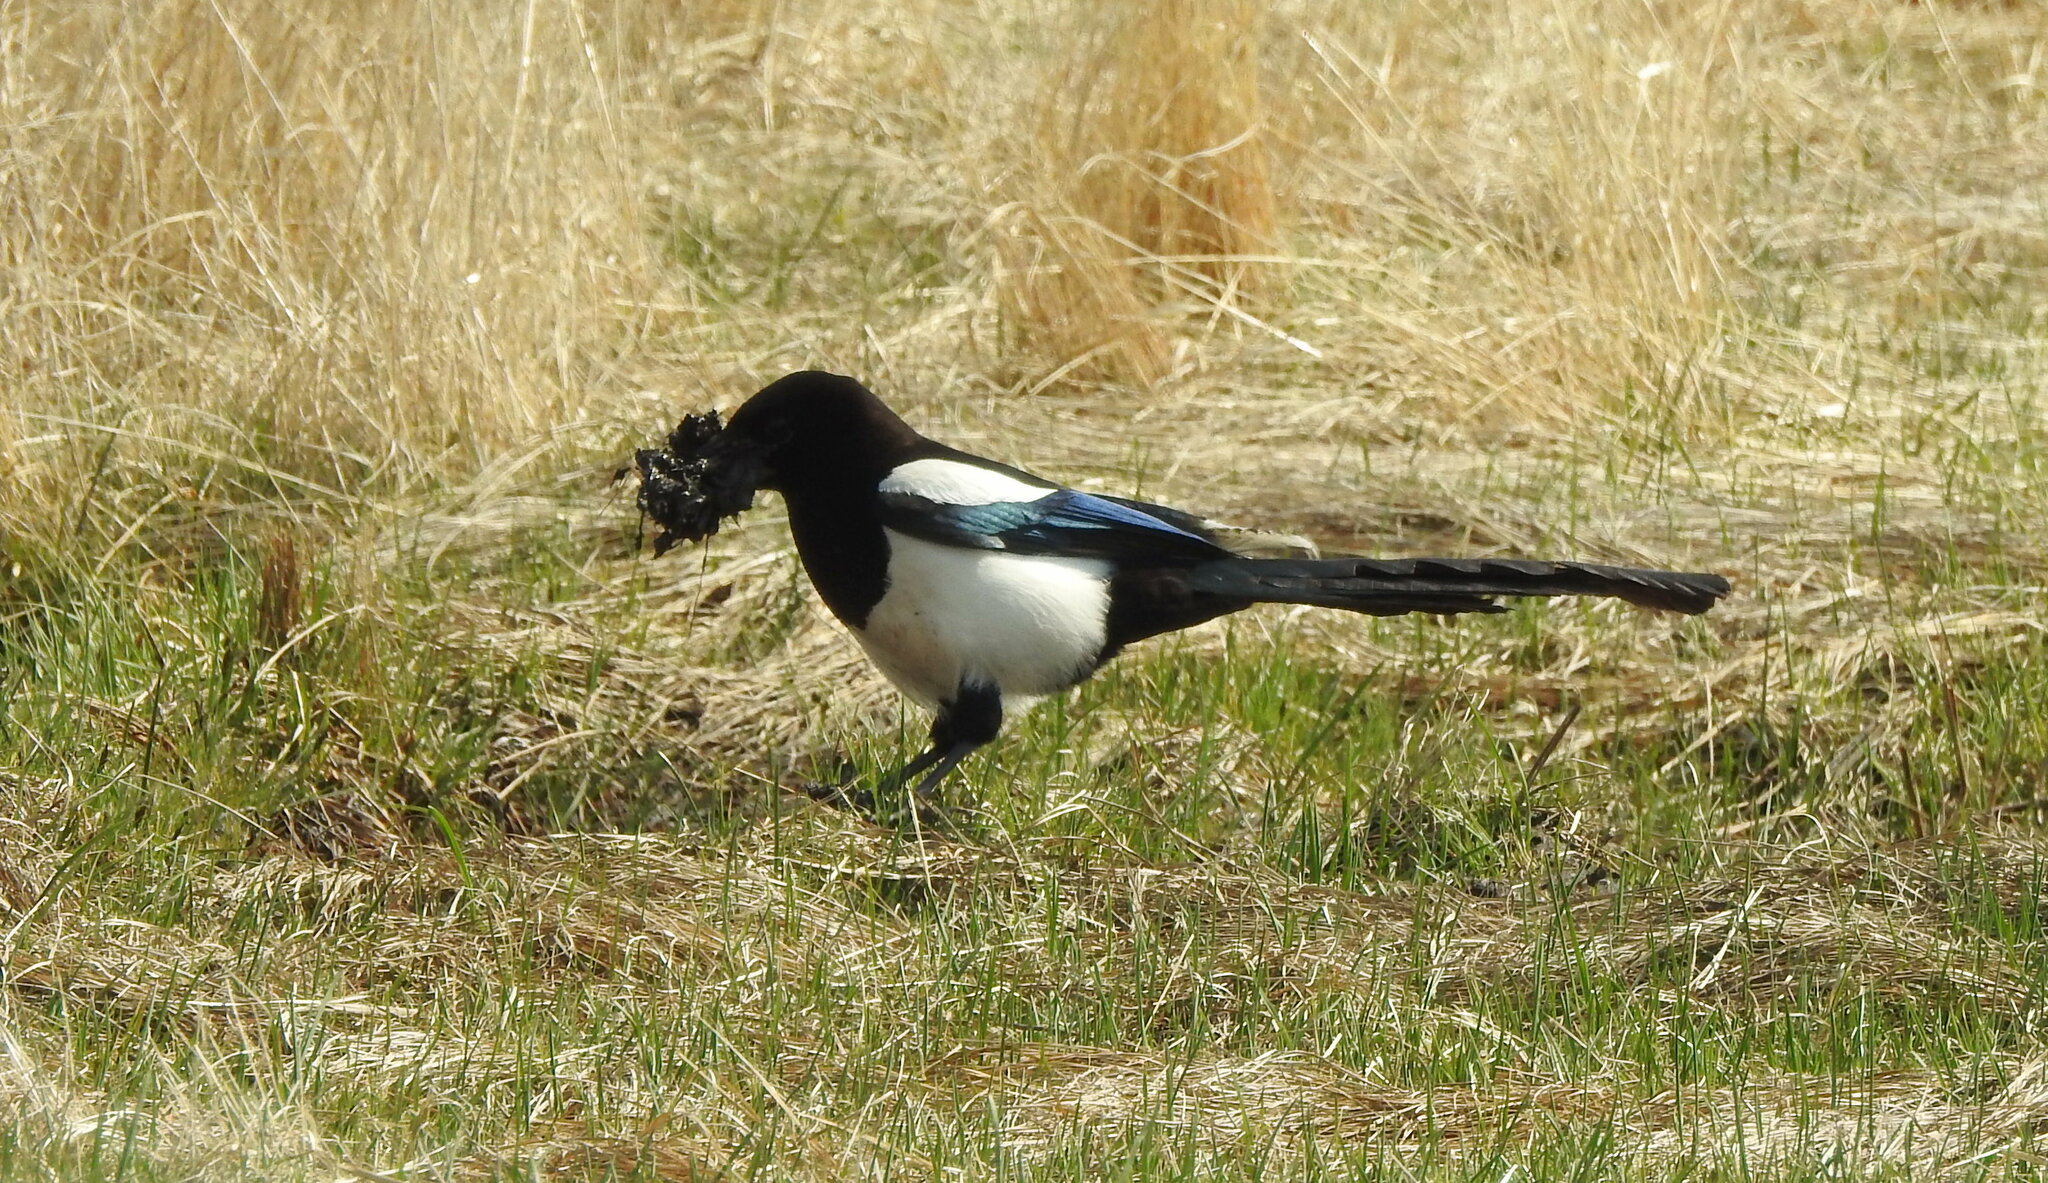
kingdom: Animalia
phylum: Chordata
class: Aves
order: Passeriformes
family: Corvidae
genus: Pica
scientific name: Pica pica
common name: Eurasian magpie
